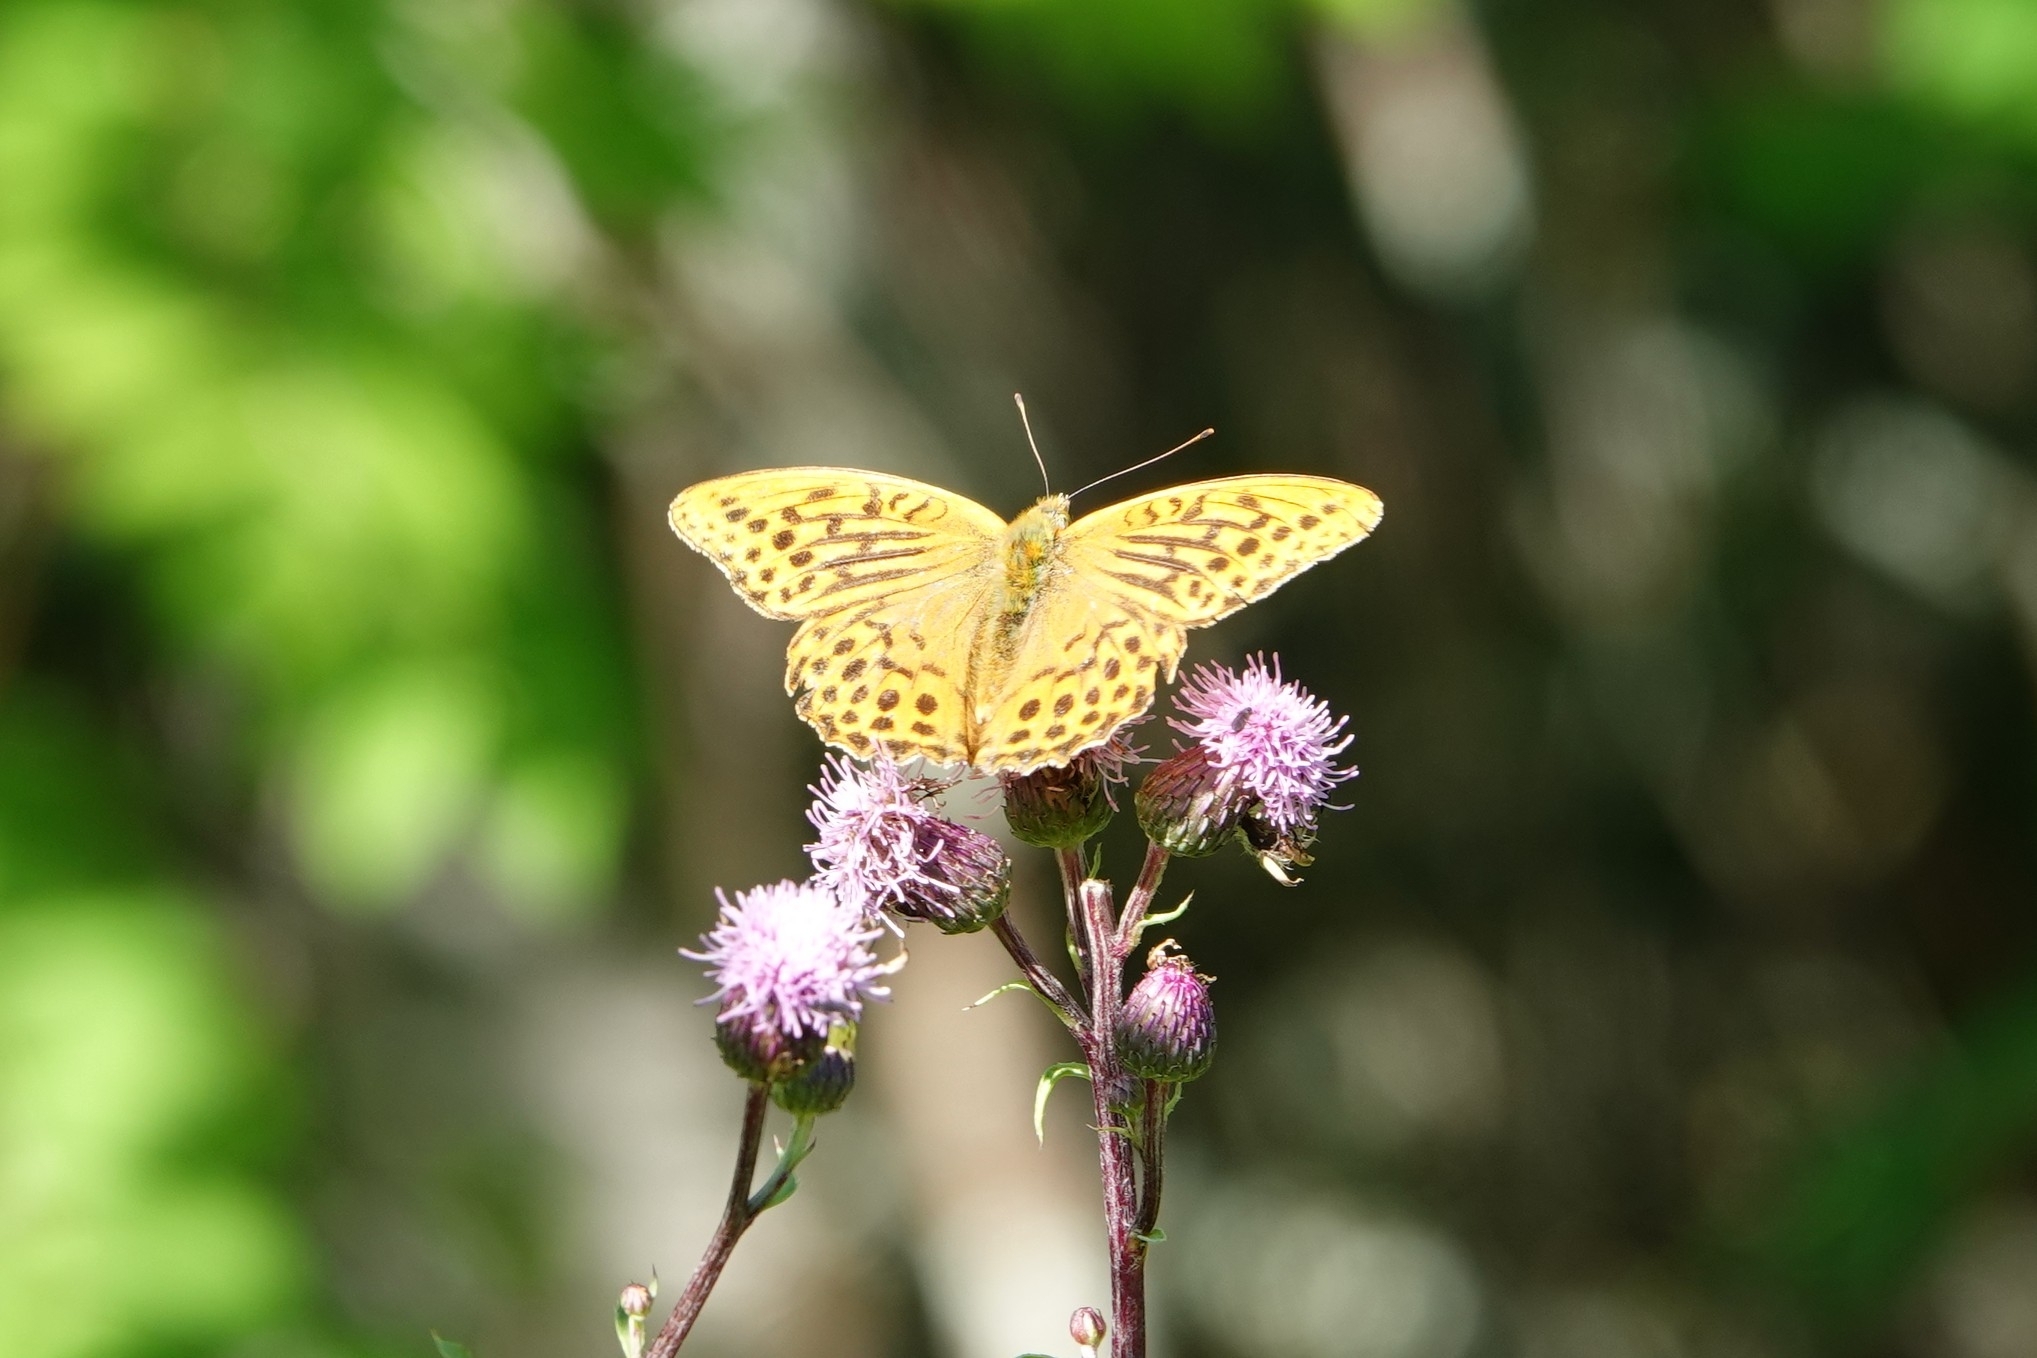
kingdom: Animalia
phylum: Arthropoda
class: Insecta
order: Lepidoptera
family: Nymphalidae
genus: Argynnis
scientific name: Argynnis paphia
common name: Silver-washed fritillary
